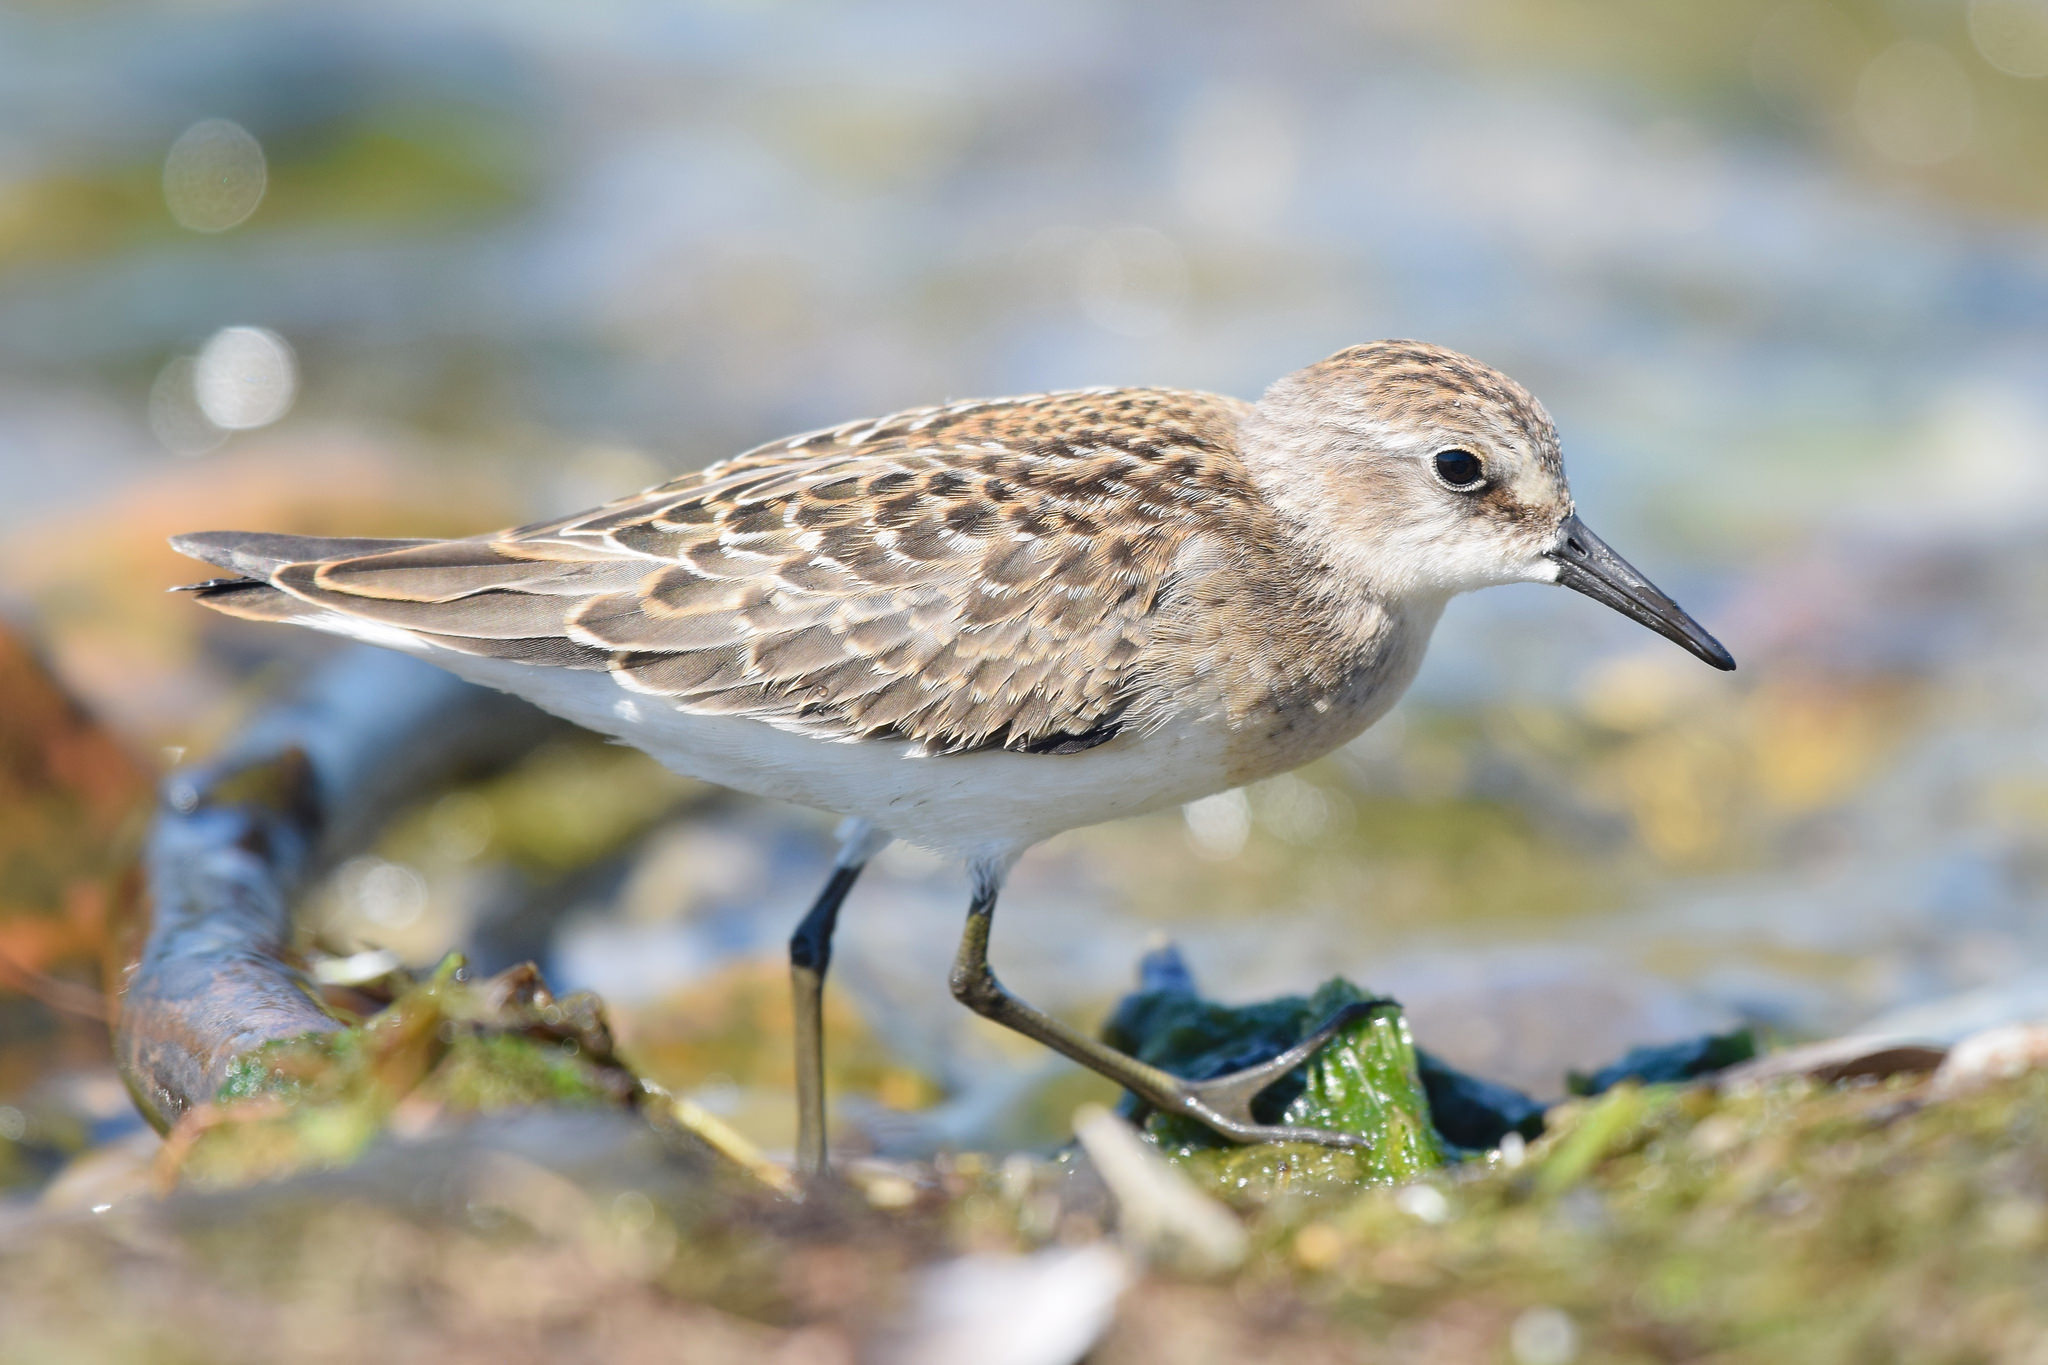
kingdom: Animalia
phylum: Chordata
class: Aves
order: Charadriiformes
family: Scolopacidae
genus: Calidris
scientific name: Calidris pusilla
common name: Semipalmated sandpiper
